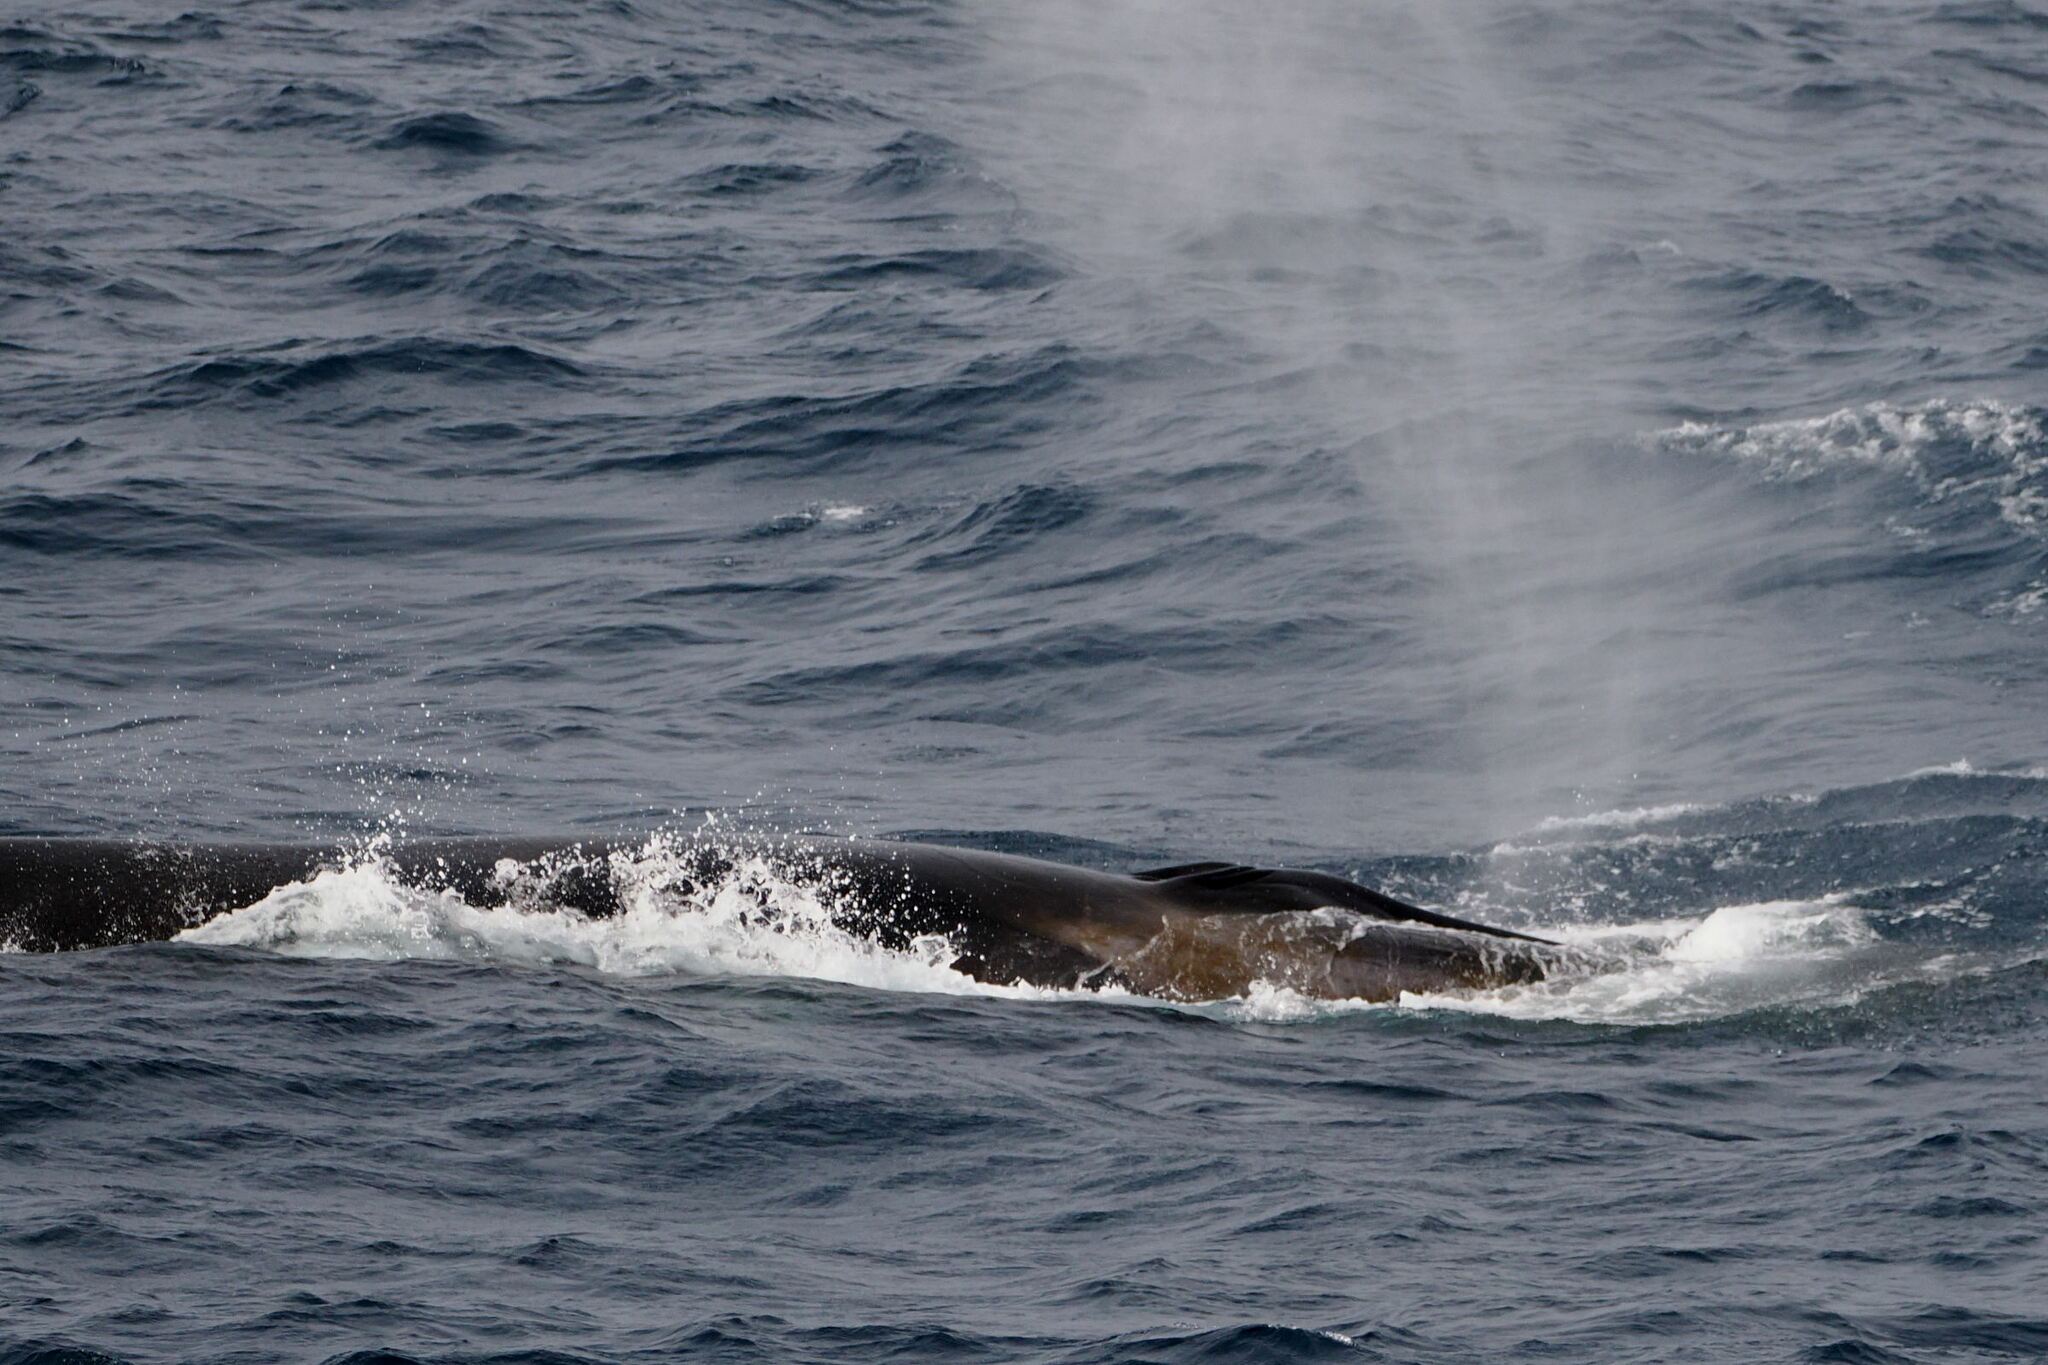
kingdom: Animalia
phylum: Chordata
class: Mammalia
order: Cetacea
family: Balaenopteridae
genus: Balaenoptera
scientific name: Balaenoptera physalus
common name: Fin whale
